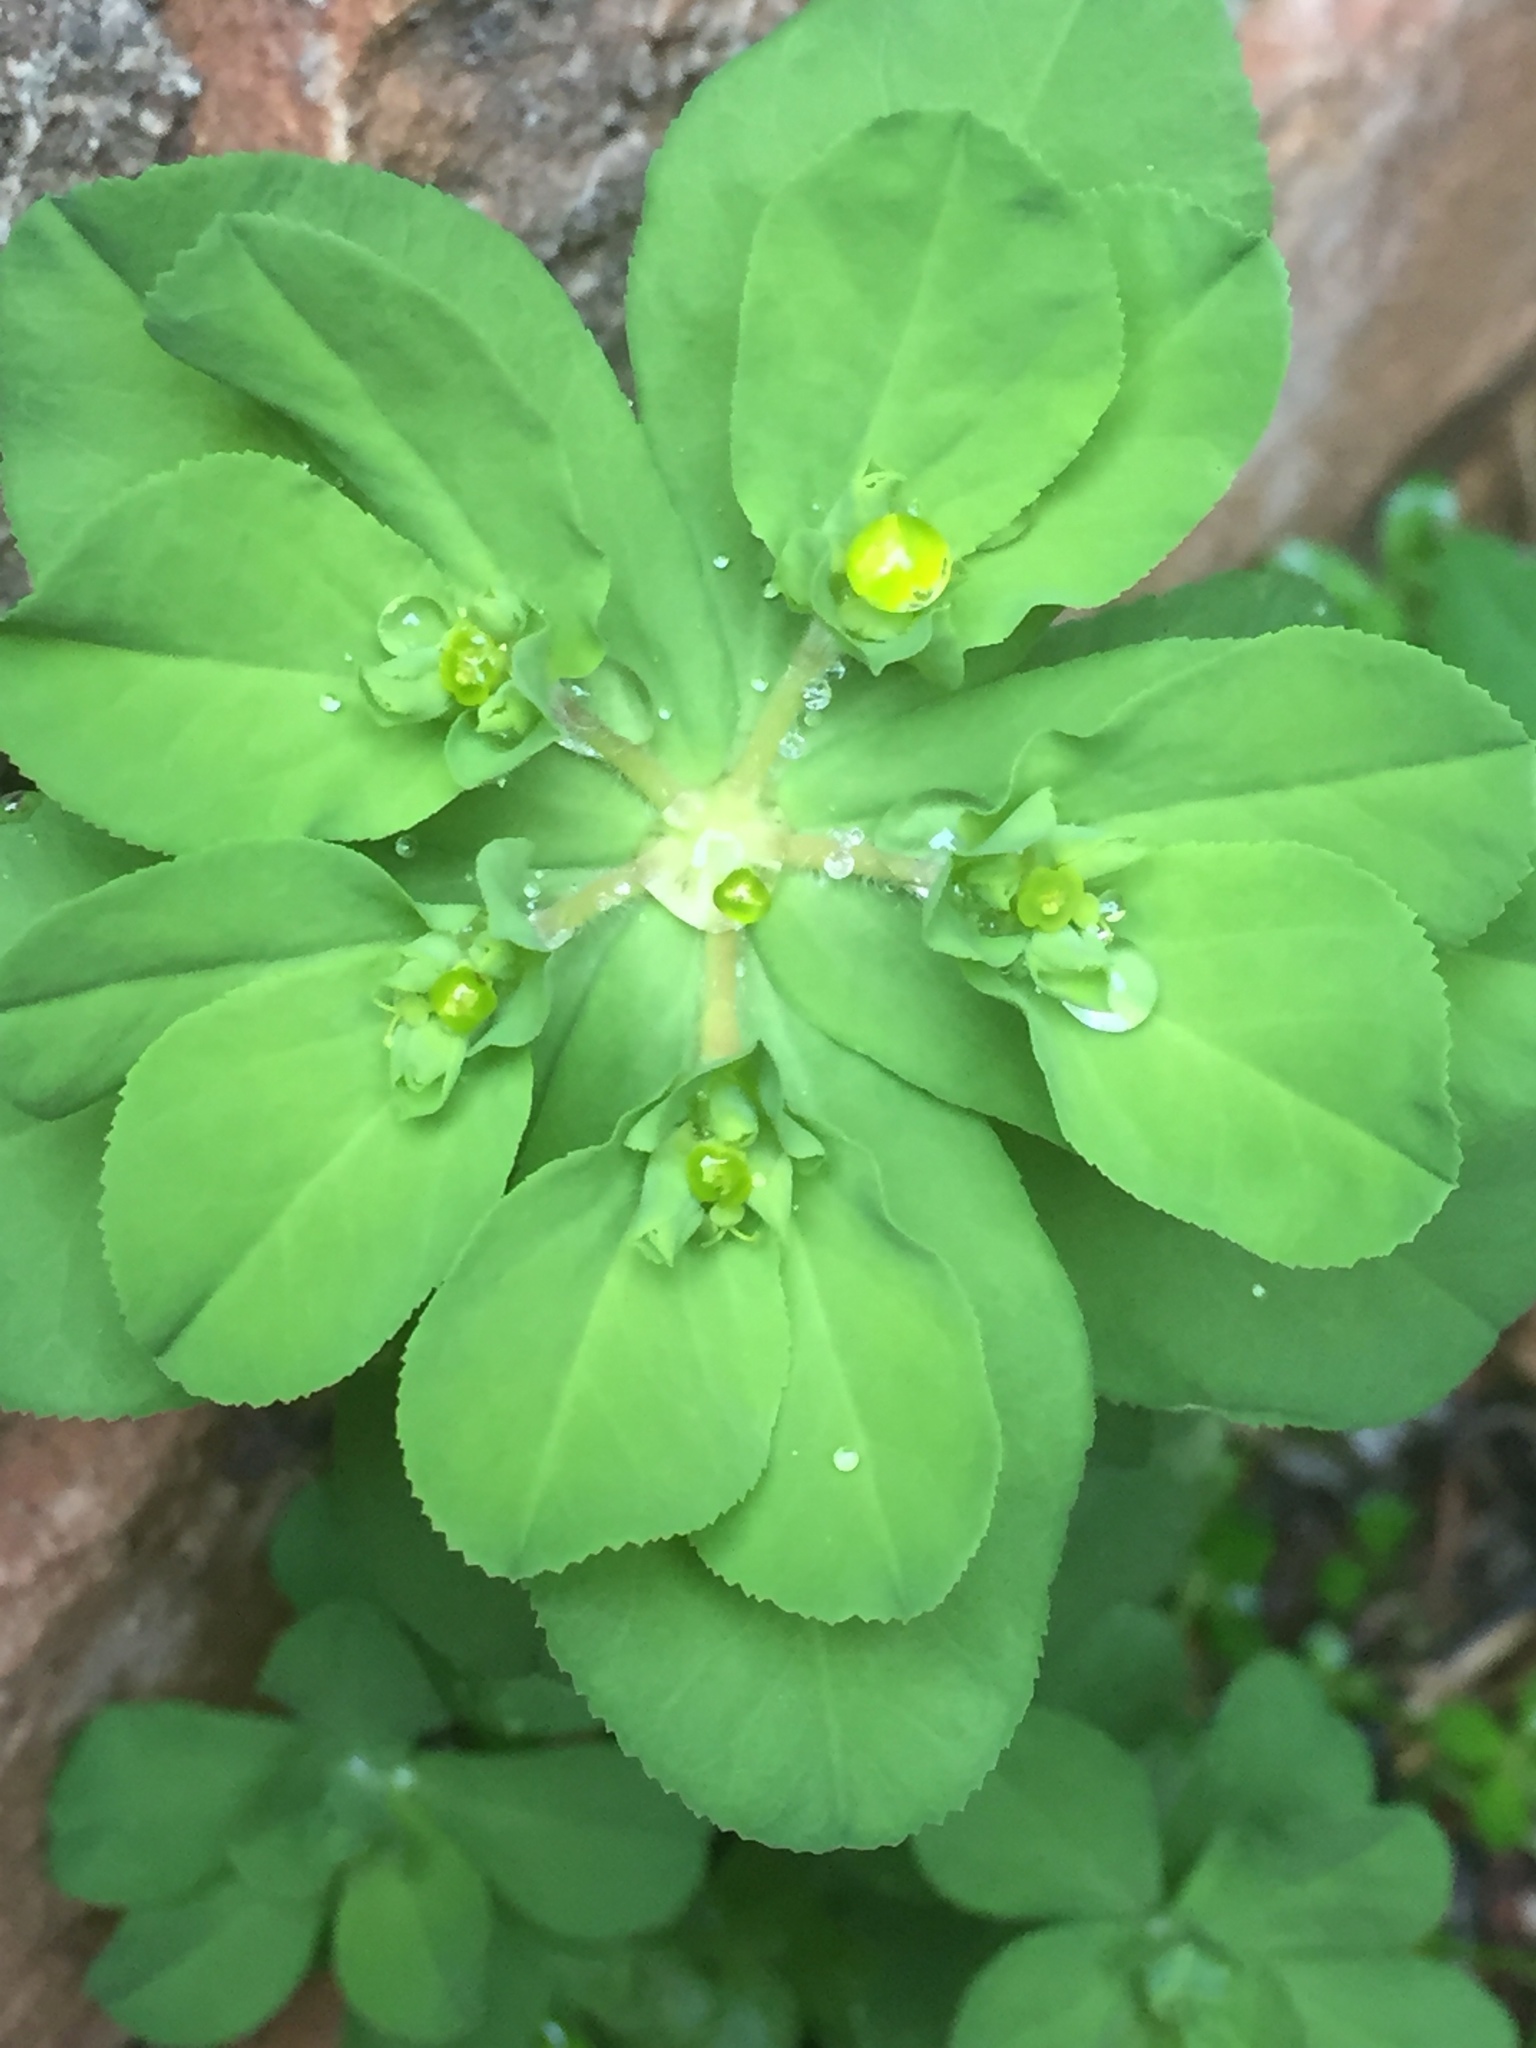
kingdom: Plantae
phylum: Tracheophyta
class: Magnoliopsida
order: Malpighiales
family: Euphorbiaceae
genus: Euphorbia
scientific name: Euphorbia helioscopia
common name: Sun spurge
